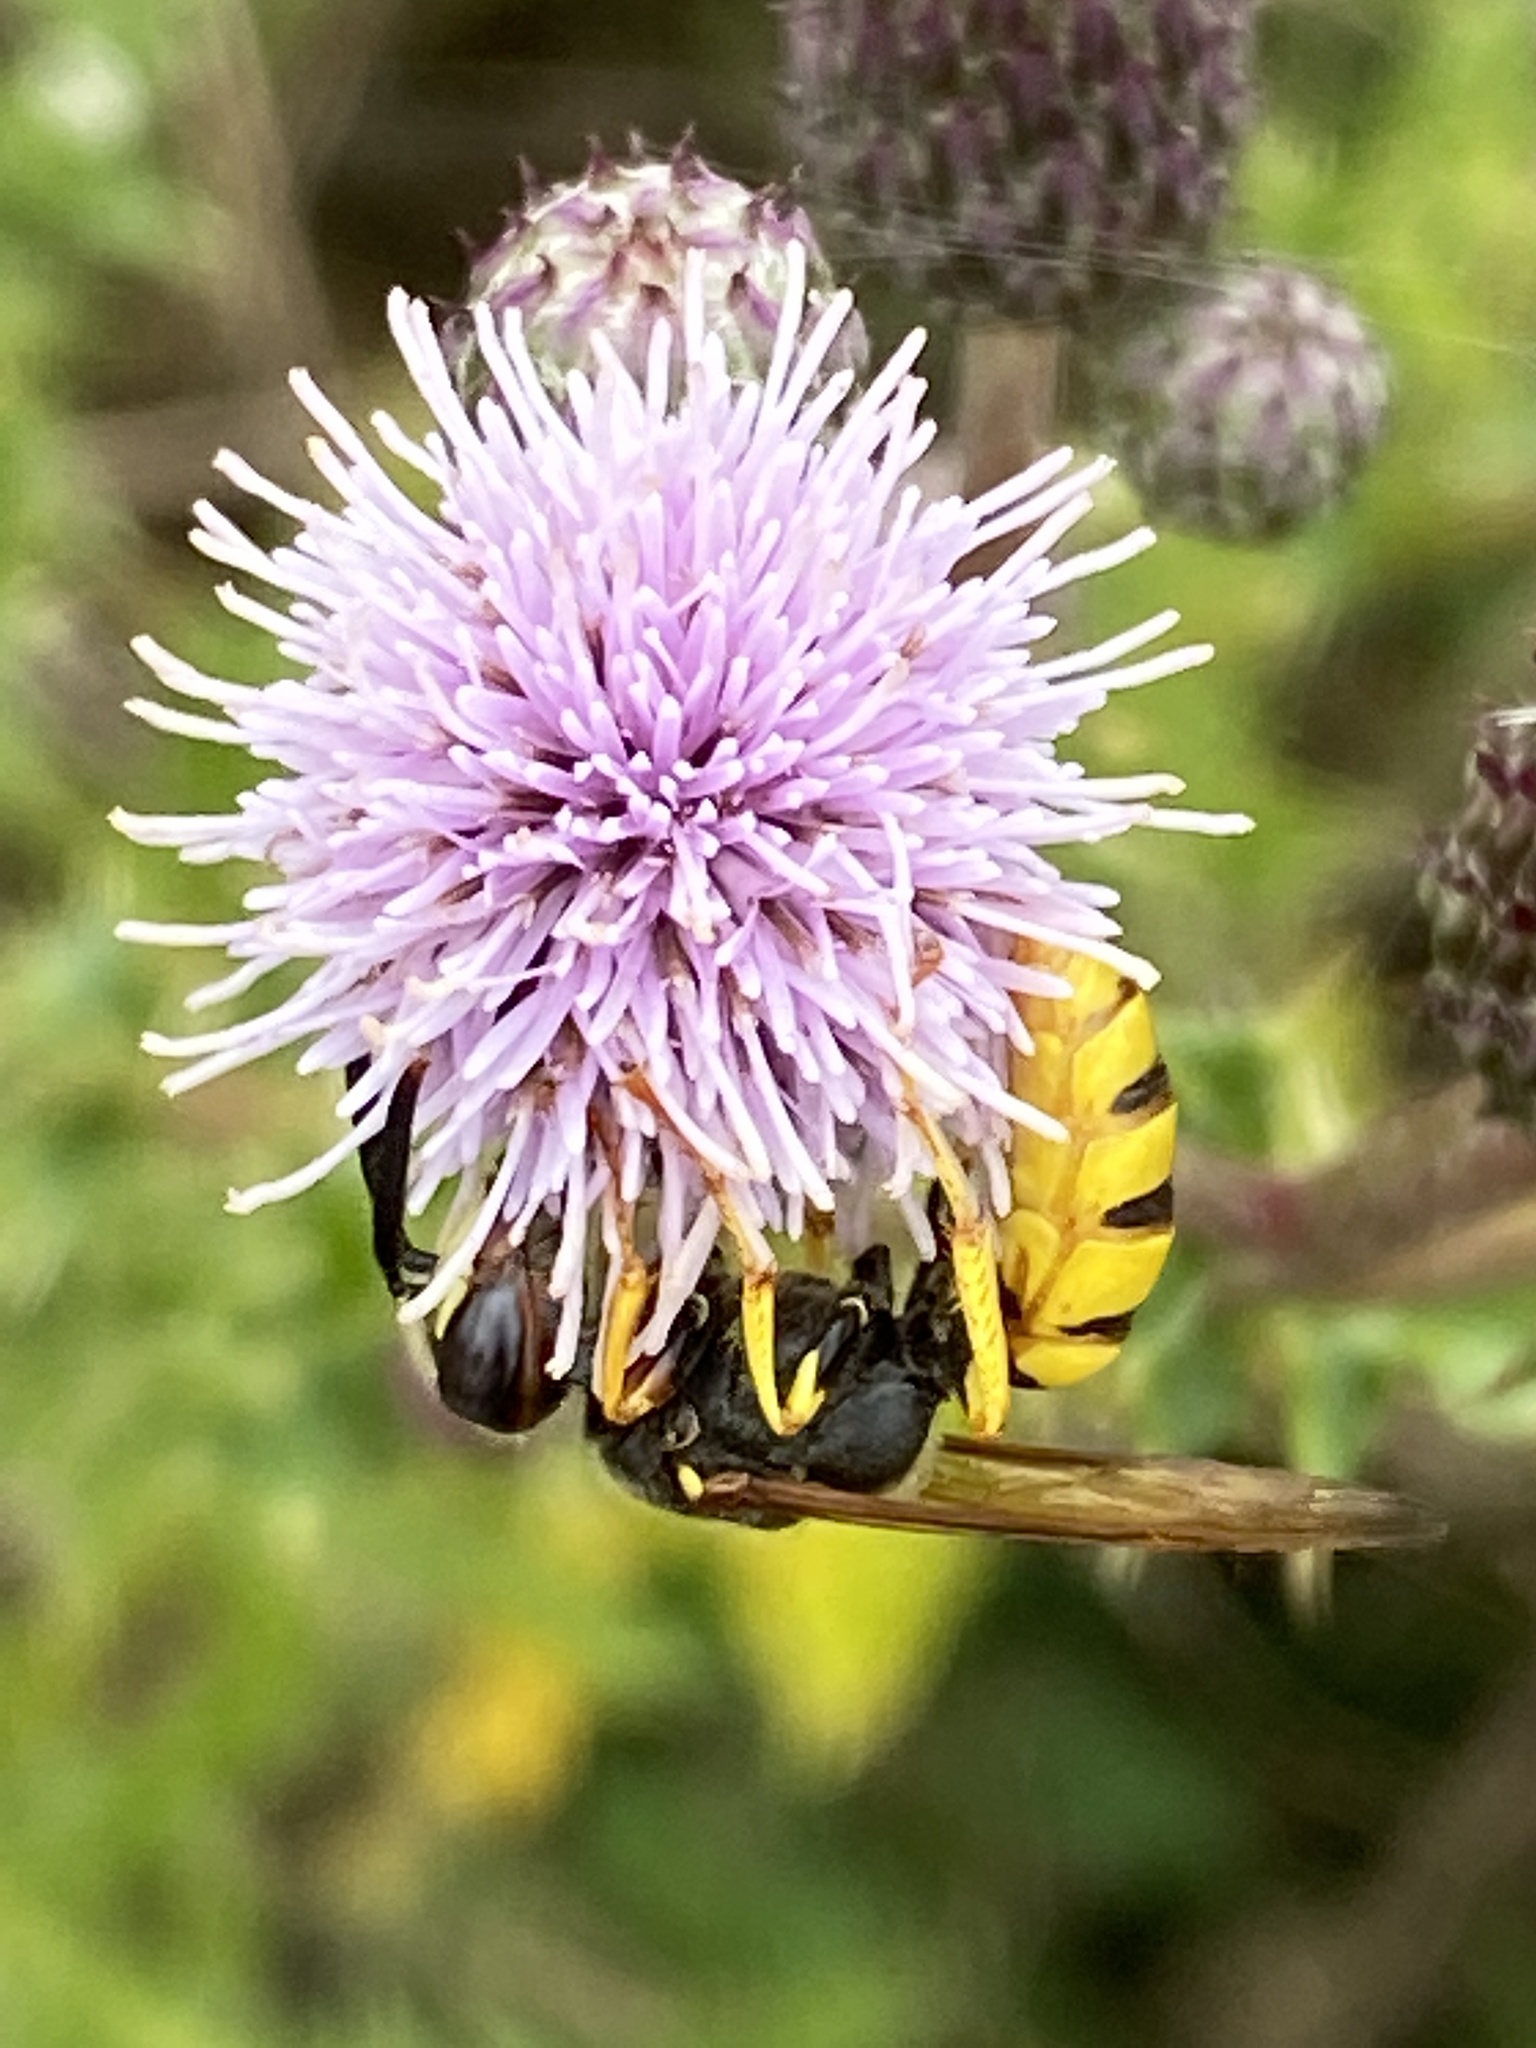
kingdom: Animalia
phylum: Arthropoda
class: Insecta
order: Hymenoptera
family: Crabronidae
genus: Philanthus
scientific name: Philanthus triangulum
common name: Bee wolf
